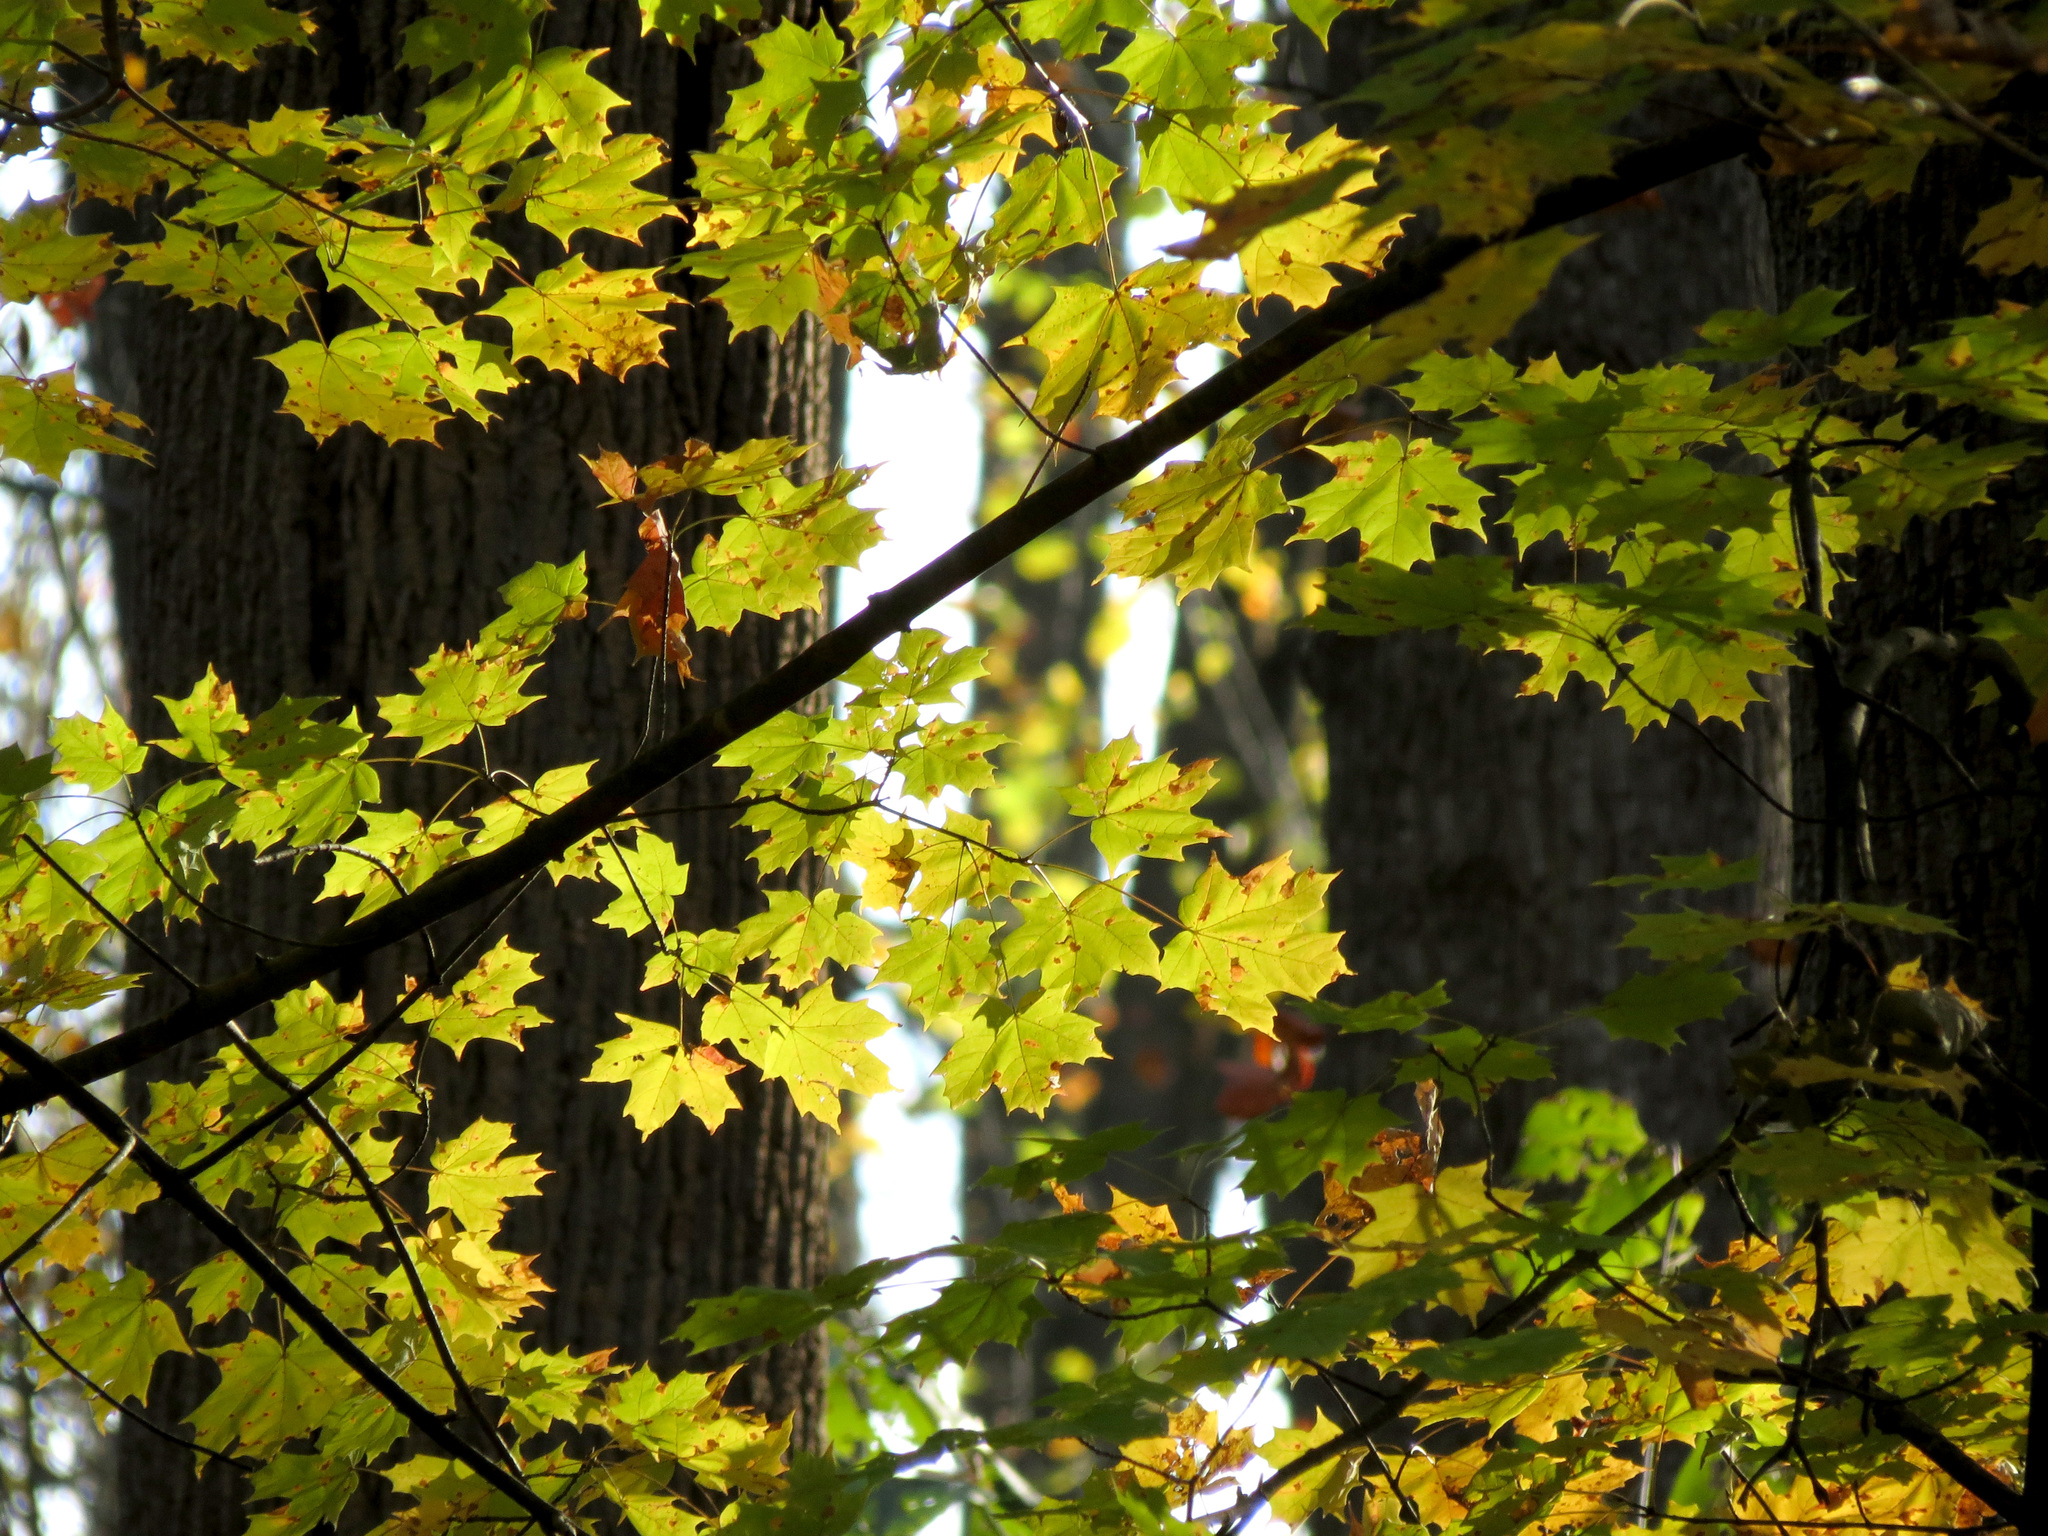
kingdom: Plantae
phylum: Tracheophyta
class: Magnoliopsida
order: Sapindales
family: Sapindaceae
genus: Acer
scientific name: Acer saccharum
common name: Sugar maple
